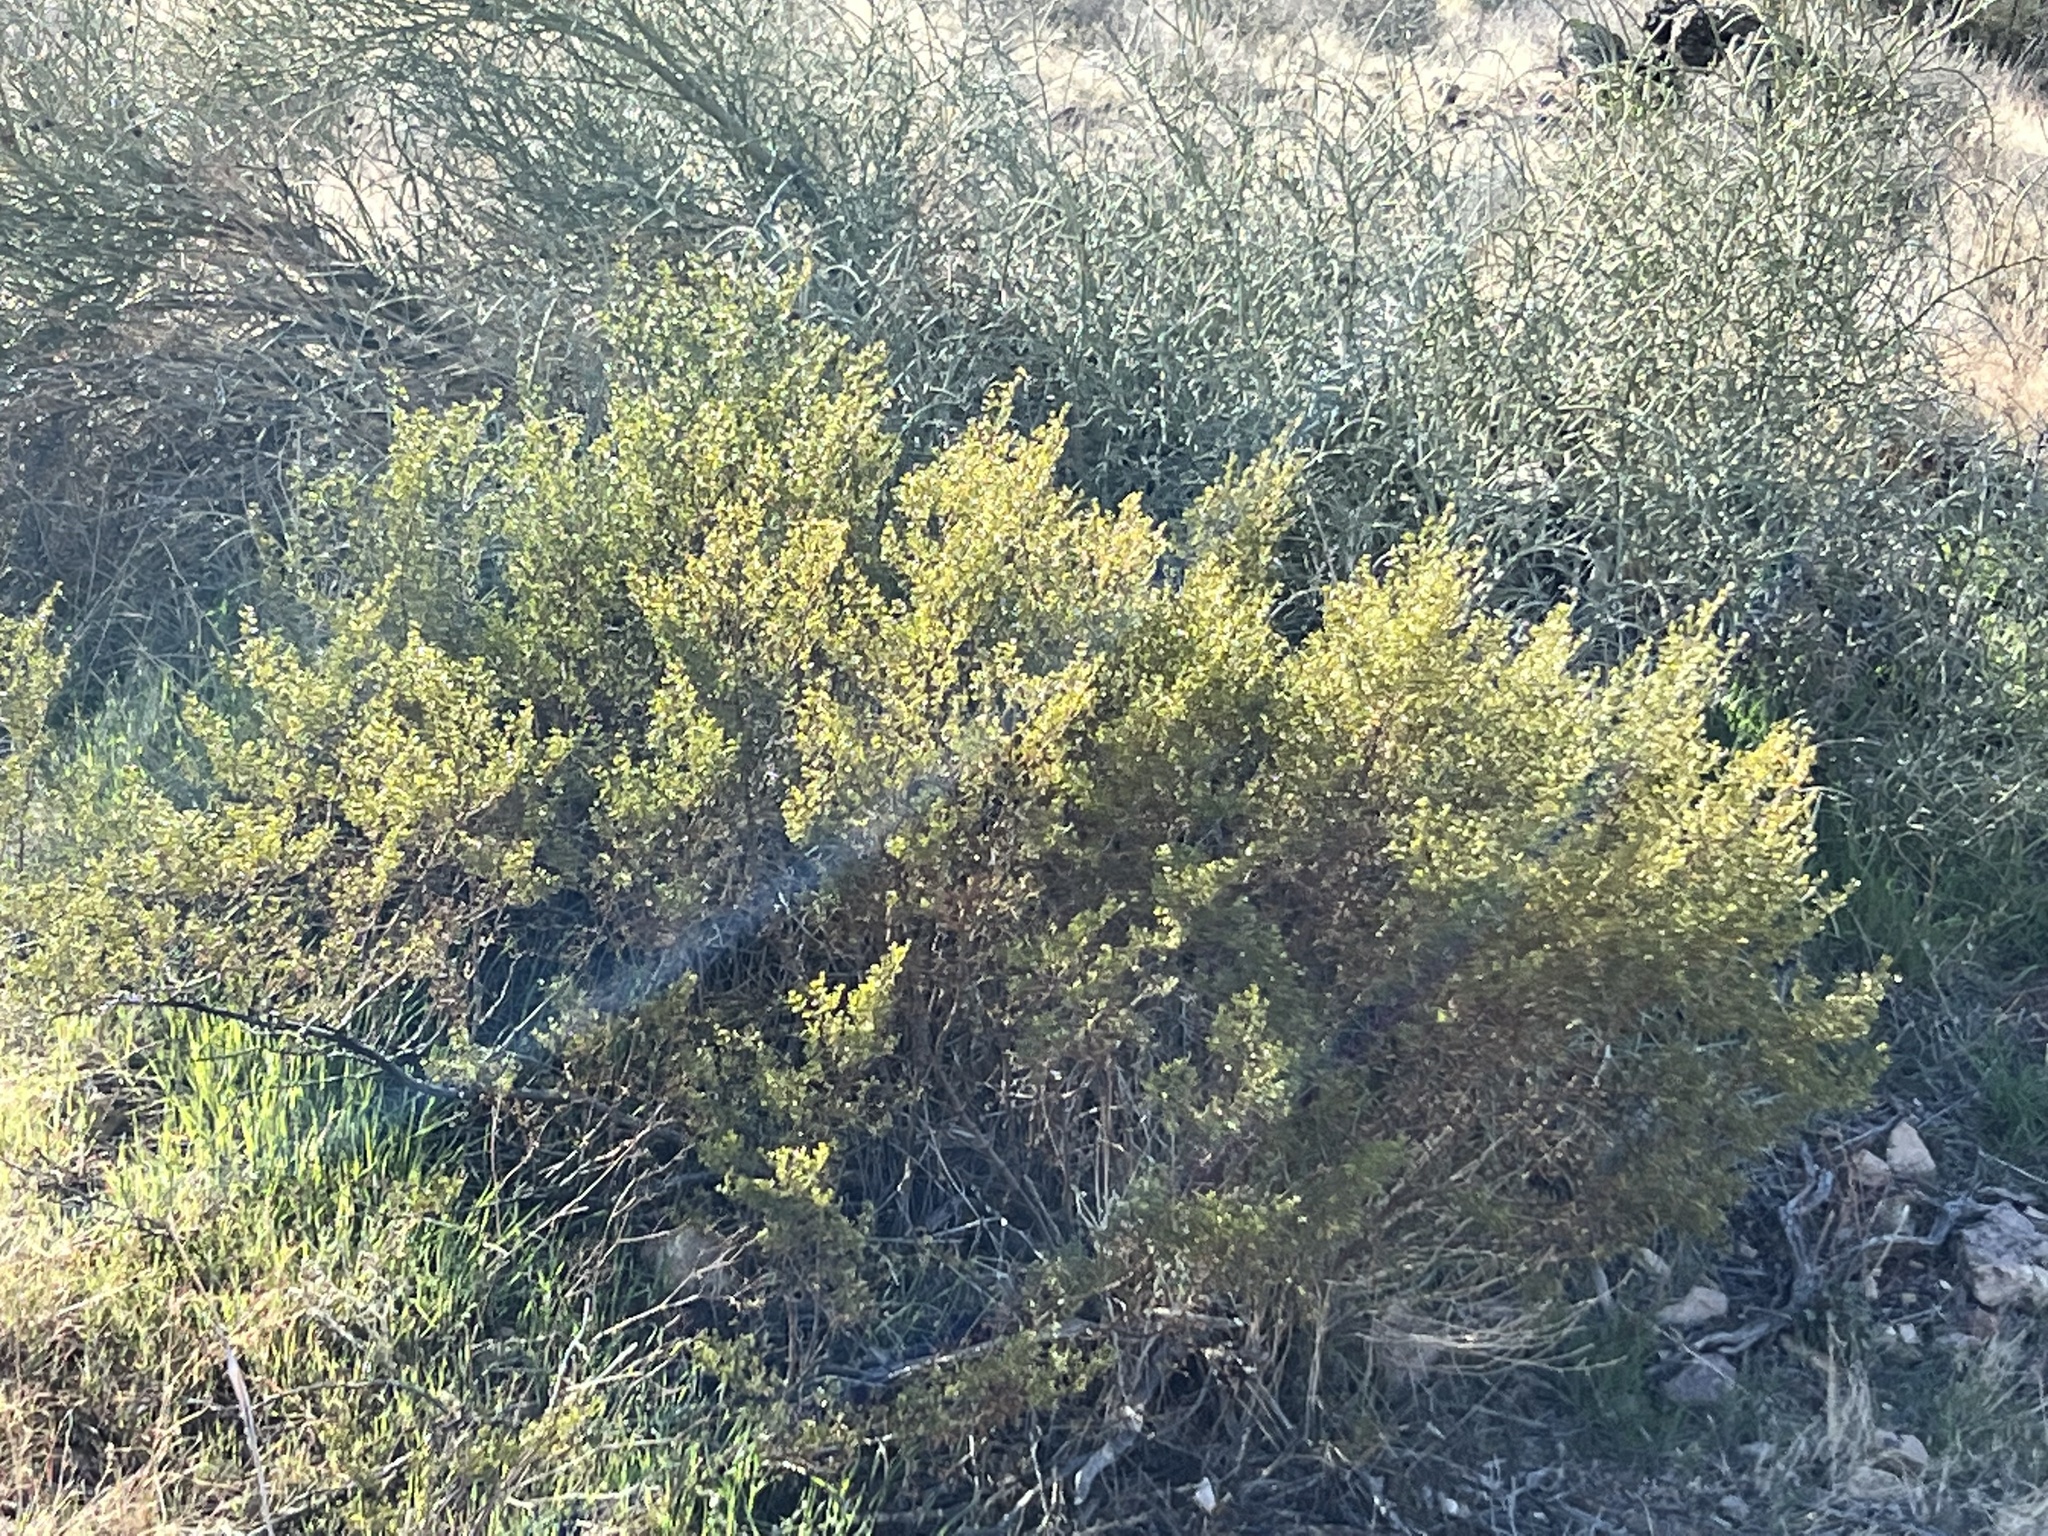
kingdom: Plantae
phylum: Tracheophyta
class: Magnoliopsida
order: Zygophyllales
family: Zygophyllaceae
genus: Larrea
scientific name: Larrea tridentata
